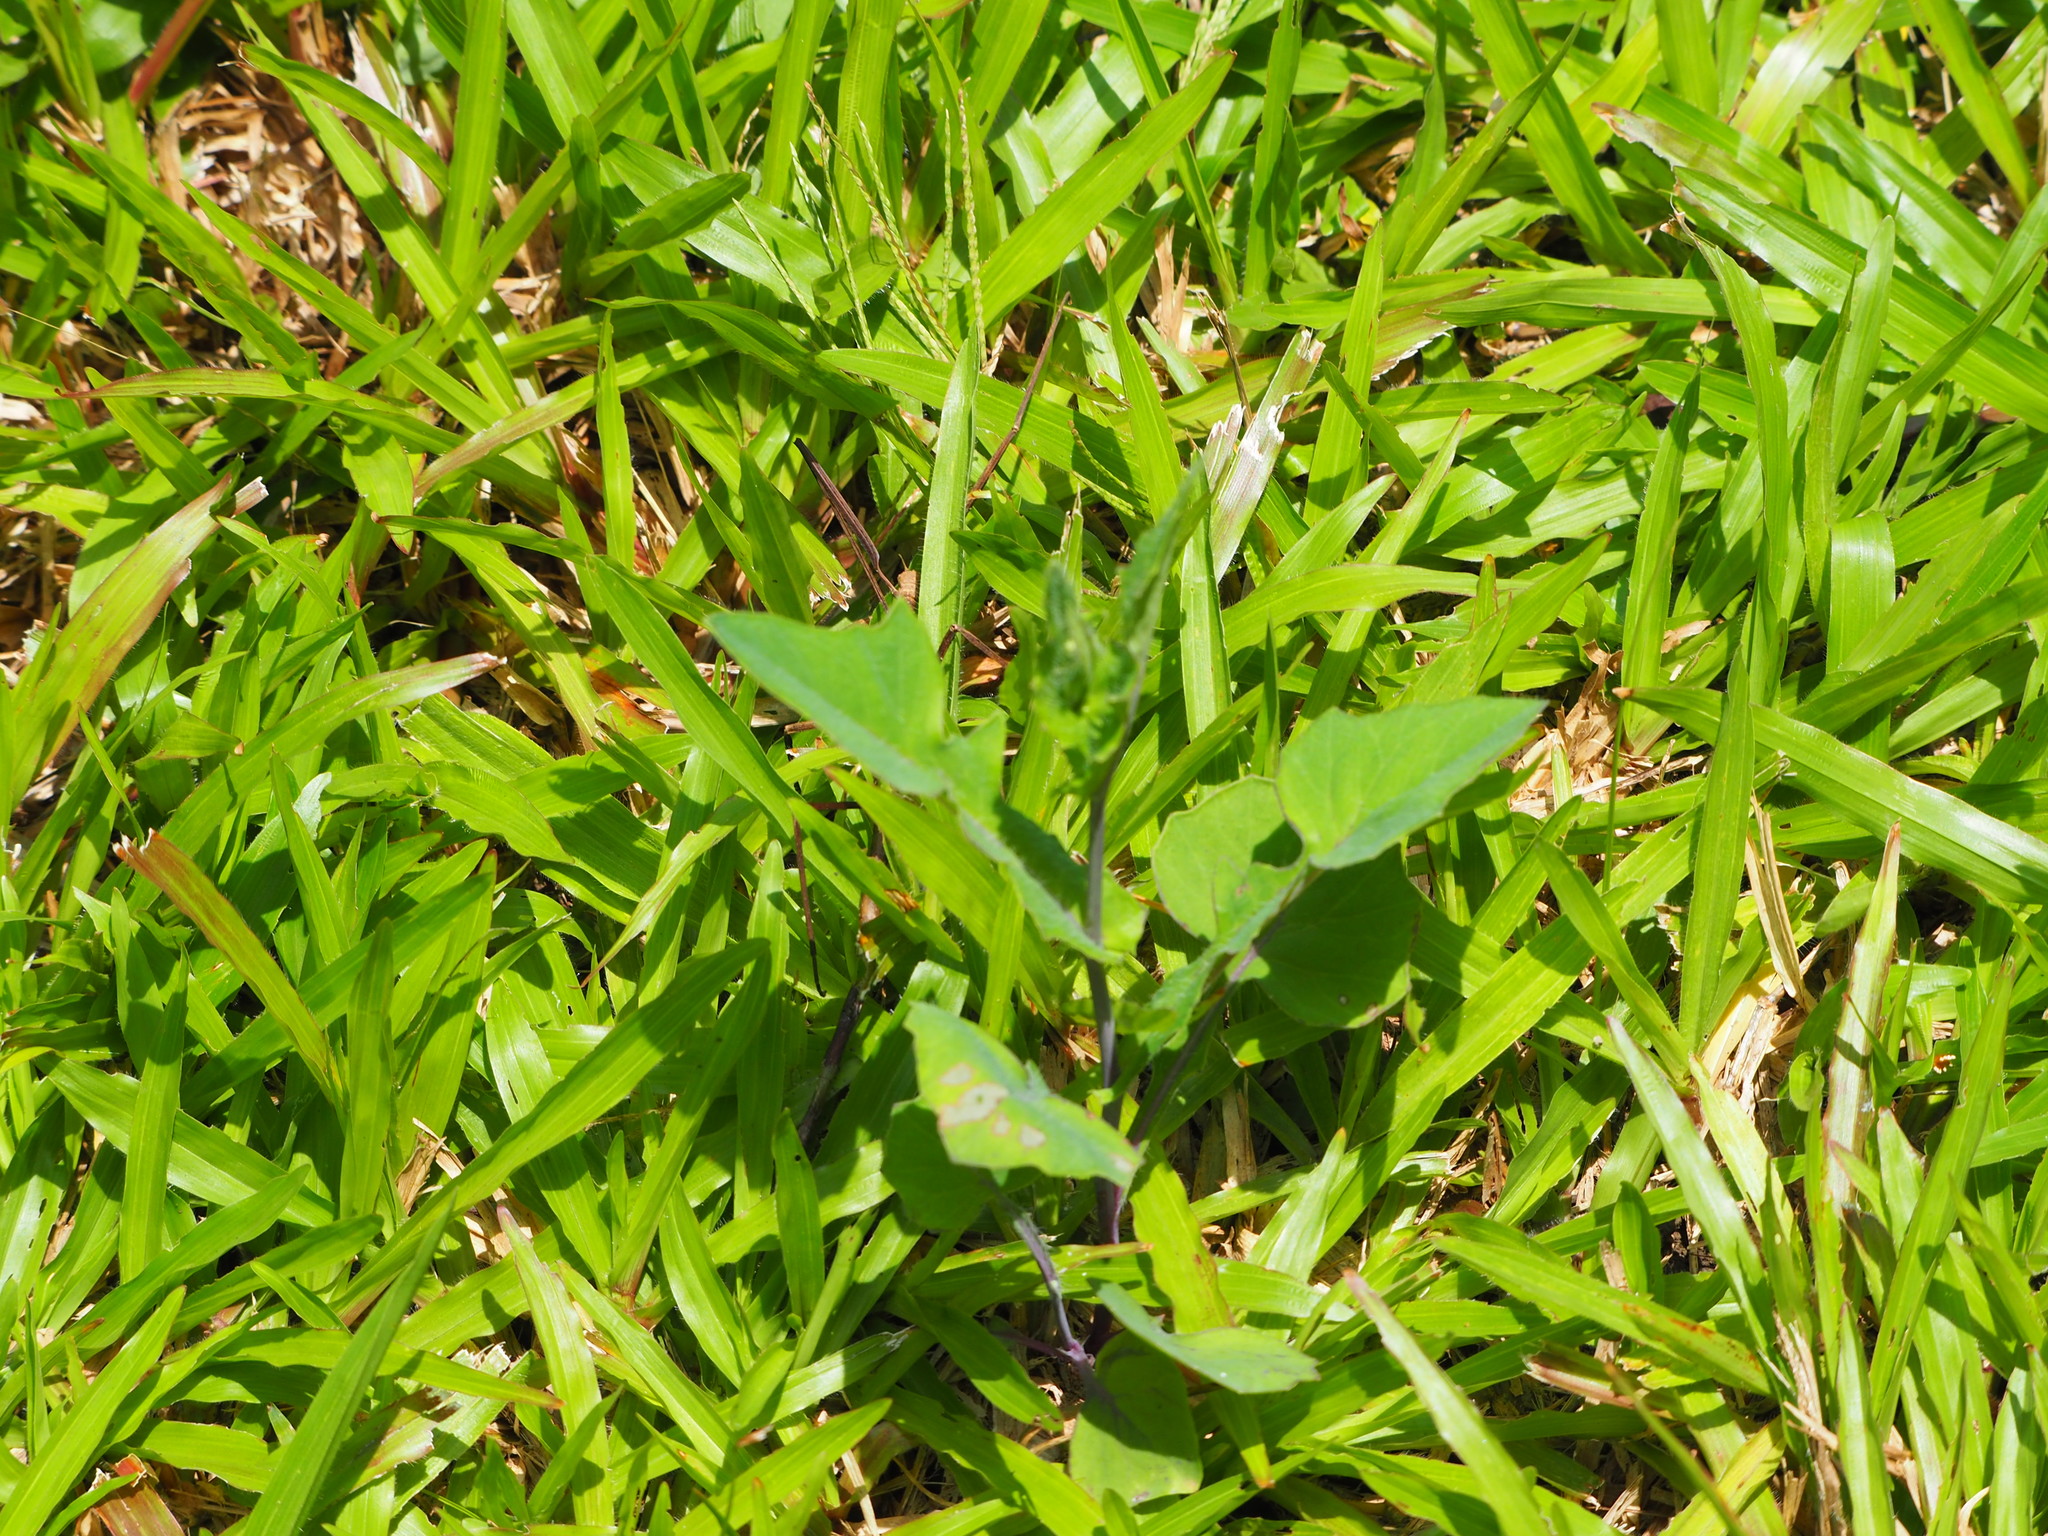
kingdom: Plantae
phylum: Tracheophyta
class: Magnoliopsida
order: Asterales
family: Asteraceae
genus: Emilia
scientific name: Emilia javanica
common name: Tassel-flower
